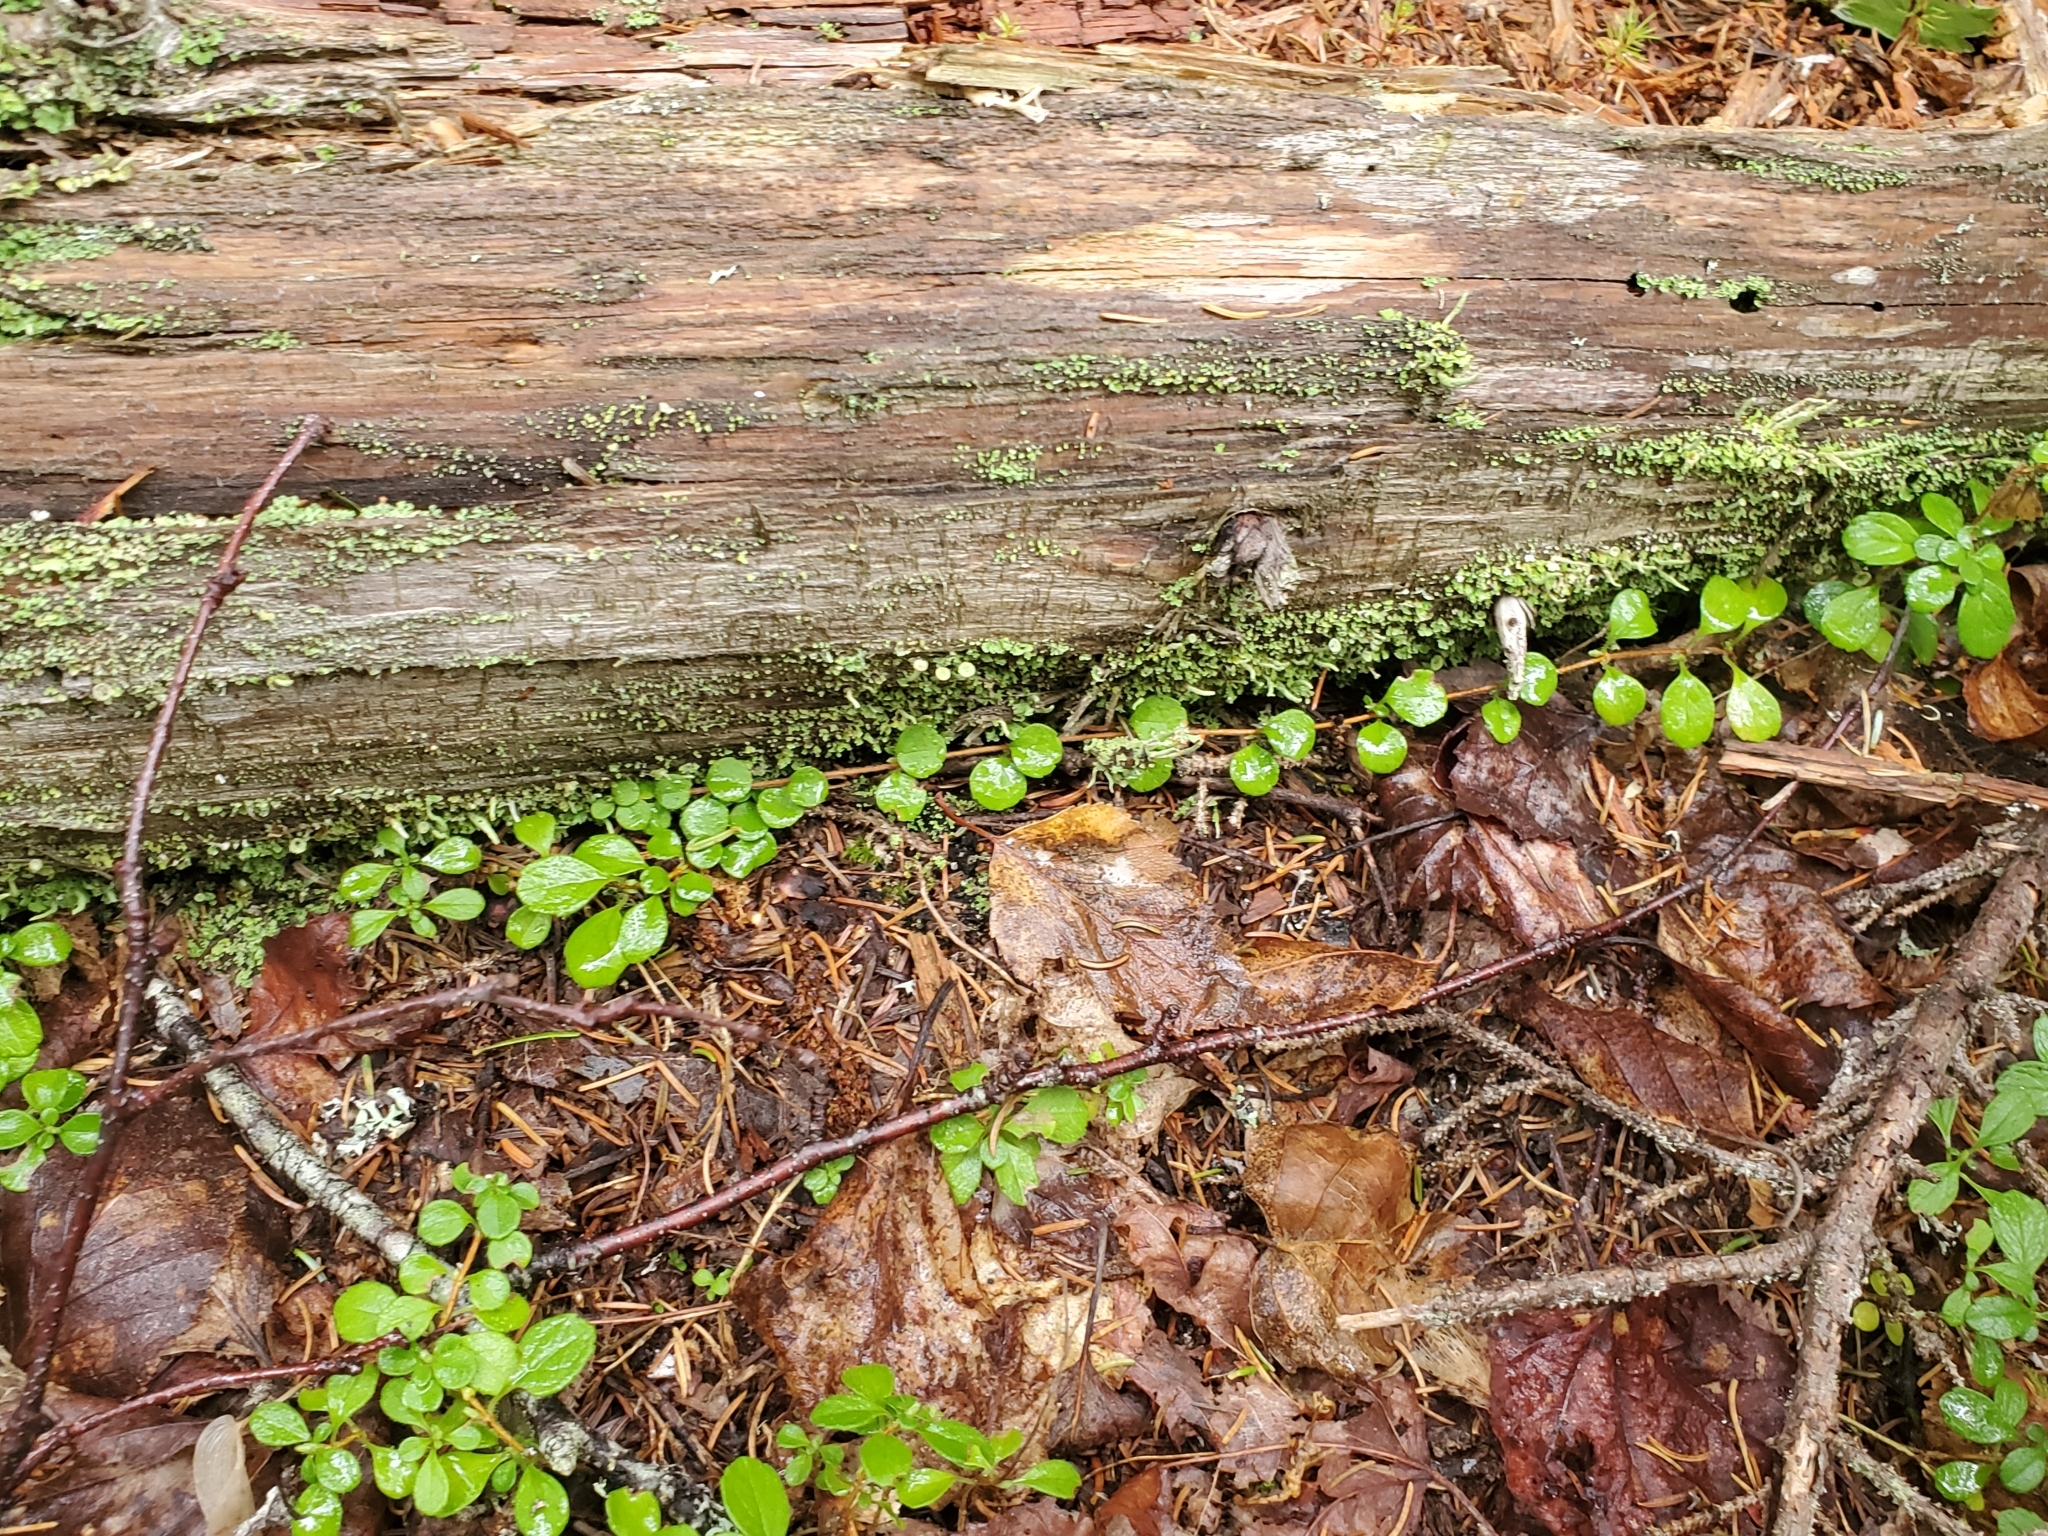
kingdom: Plantae
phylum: Tracheophyta
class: Magnoliopsida
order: Ericales
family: Ericaceae
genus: Gaultheria
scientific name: Gaultheria hispidula
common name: Cancer wintergreen
